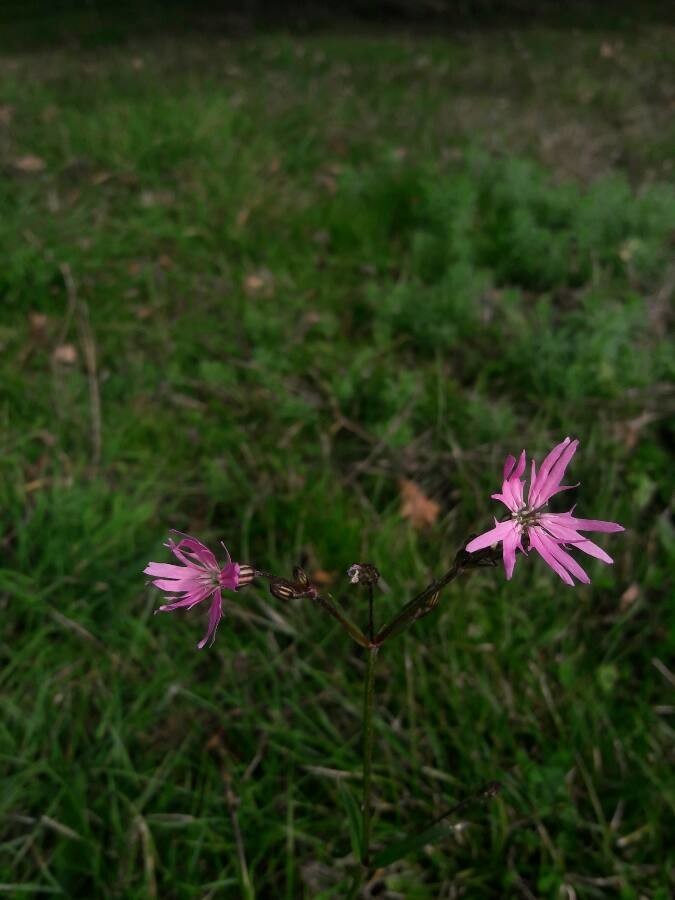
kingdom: Plantae
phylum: Tracheophyta
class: Magnoliopsida
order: Caryophyllales
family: Caryophyllaceae
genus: Silene
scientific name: Silene flos-cuculi
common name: Ragged-robin
